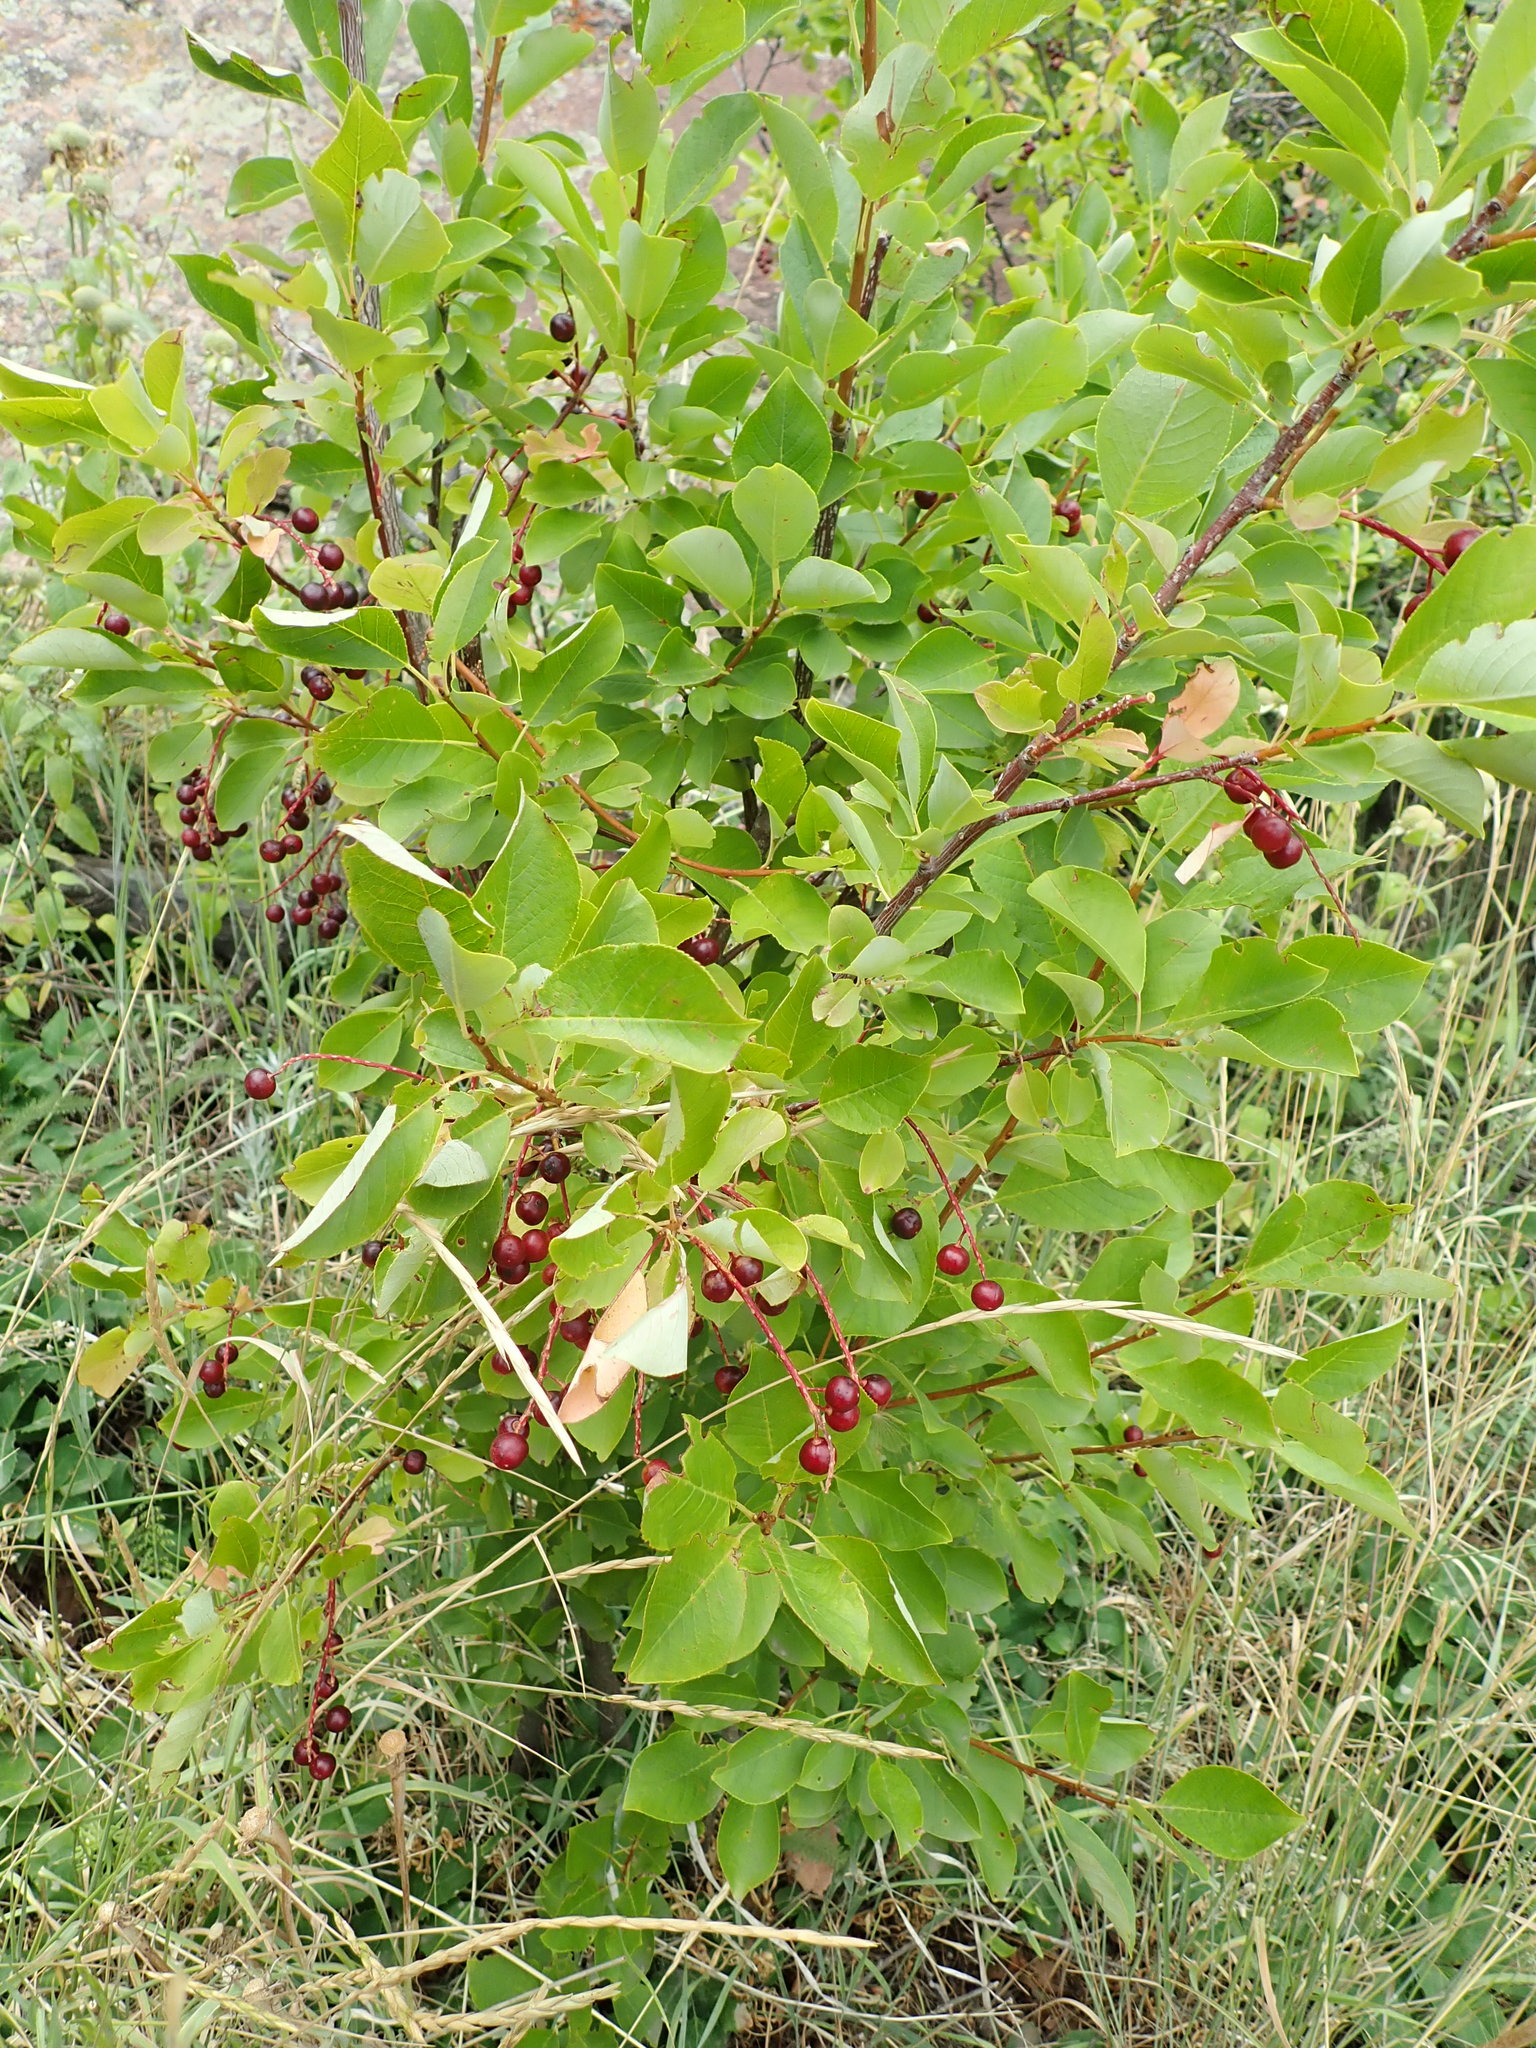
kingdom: Plantae
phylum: Tracheophyta
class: Magnoliopsida
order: Rosales
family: Rosaceae
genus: Prunus
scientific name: Prunus virginiana
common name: Chokecherry
